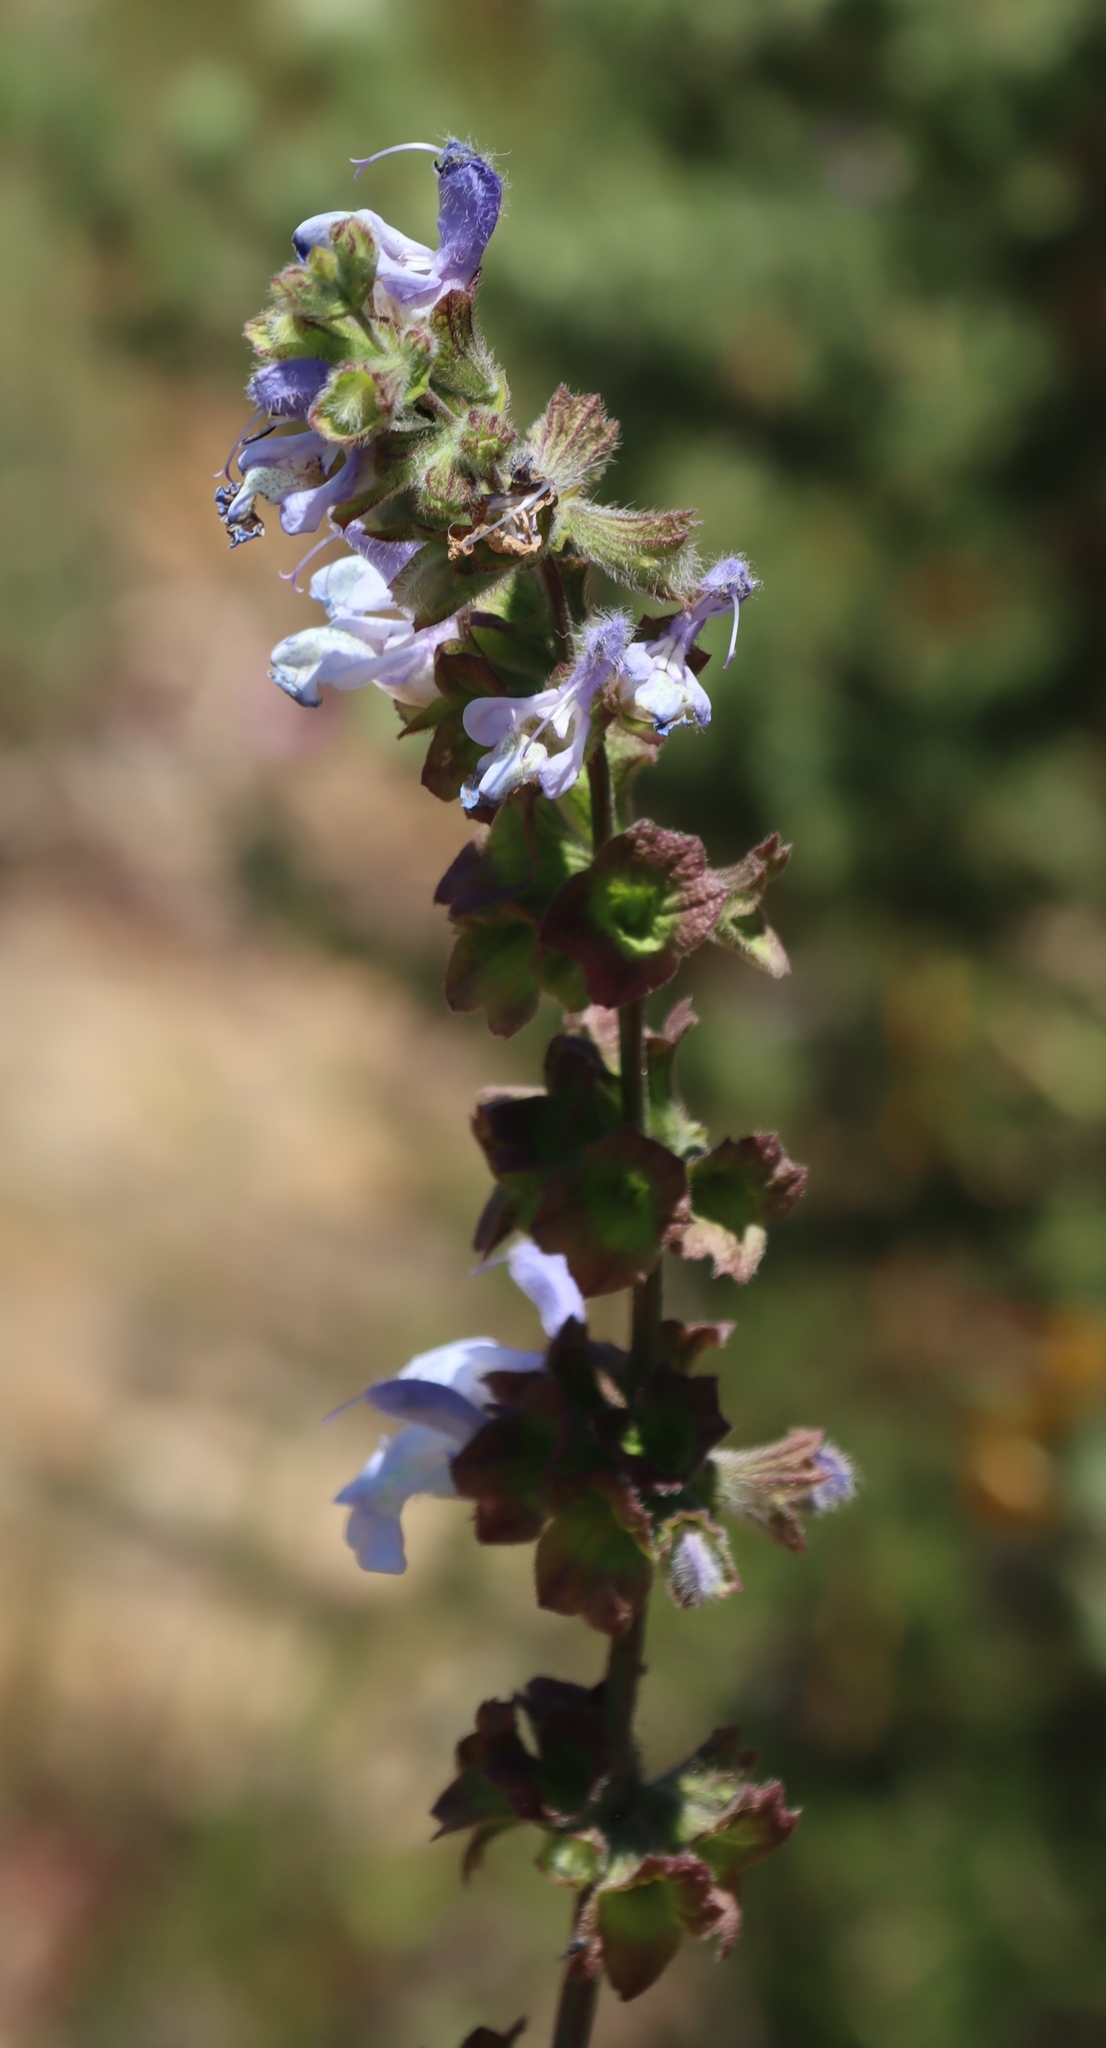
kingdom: Plantae
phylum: Tracheophyta
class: Magnoliopsida
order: Lamiales
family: Lamiaceae
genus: Salvia
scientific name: Salvia africana
